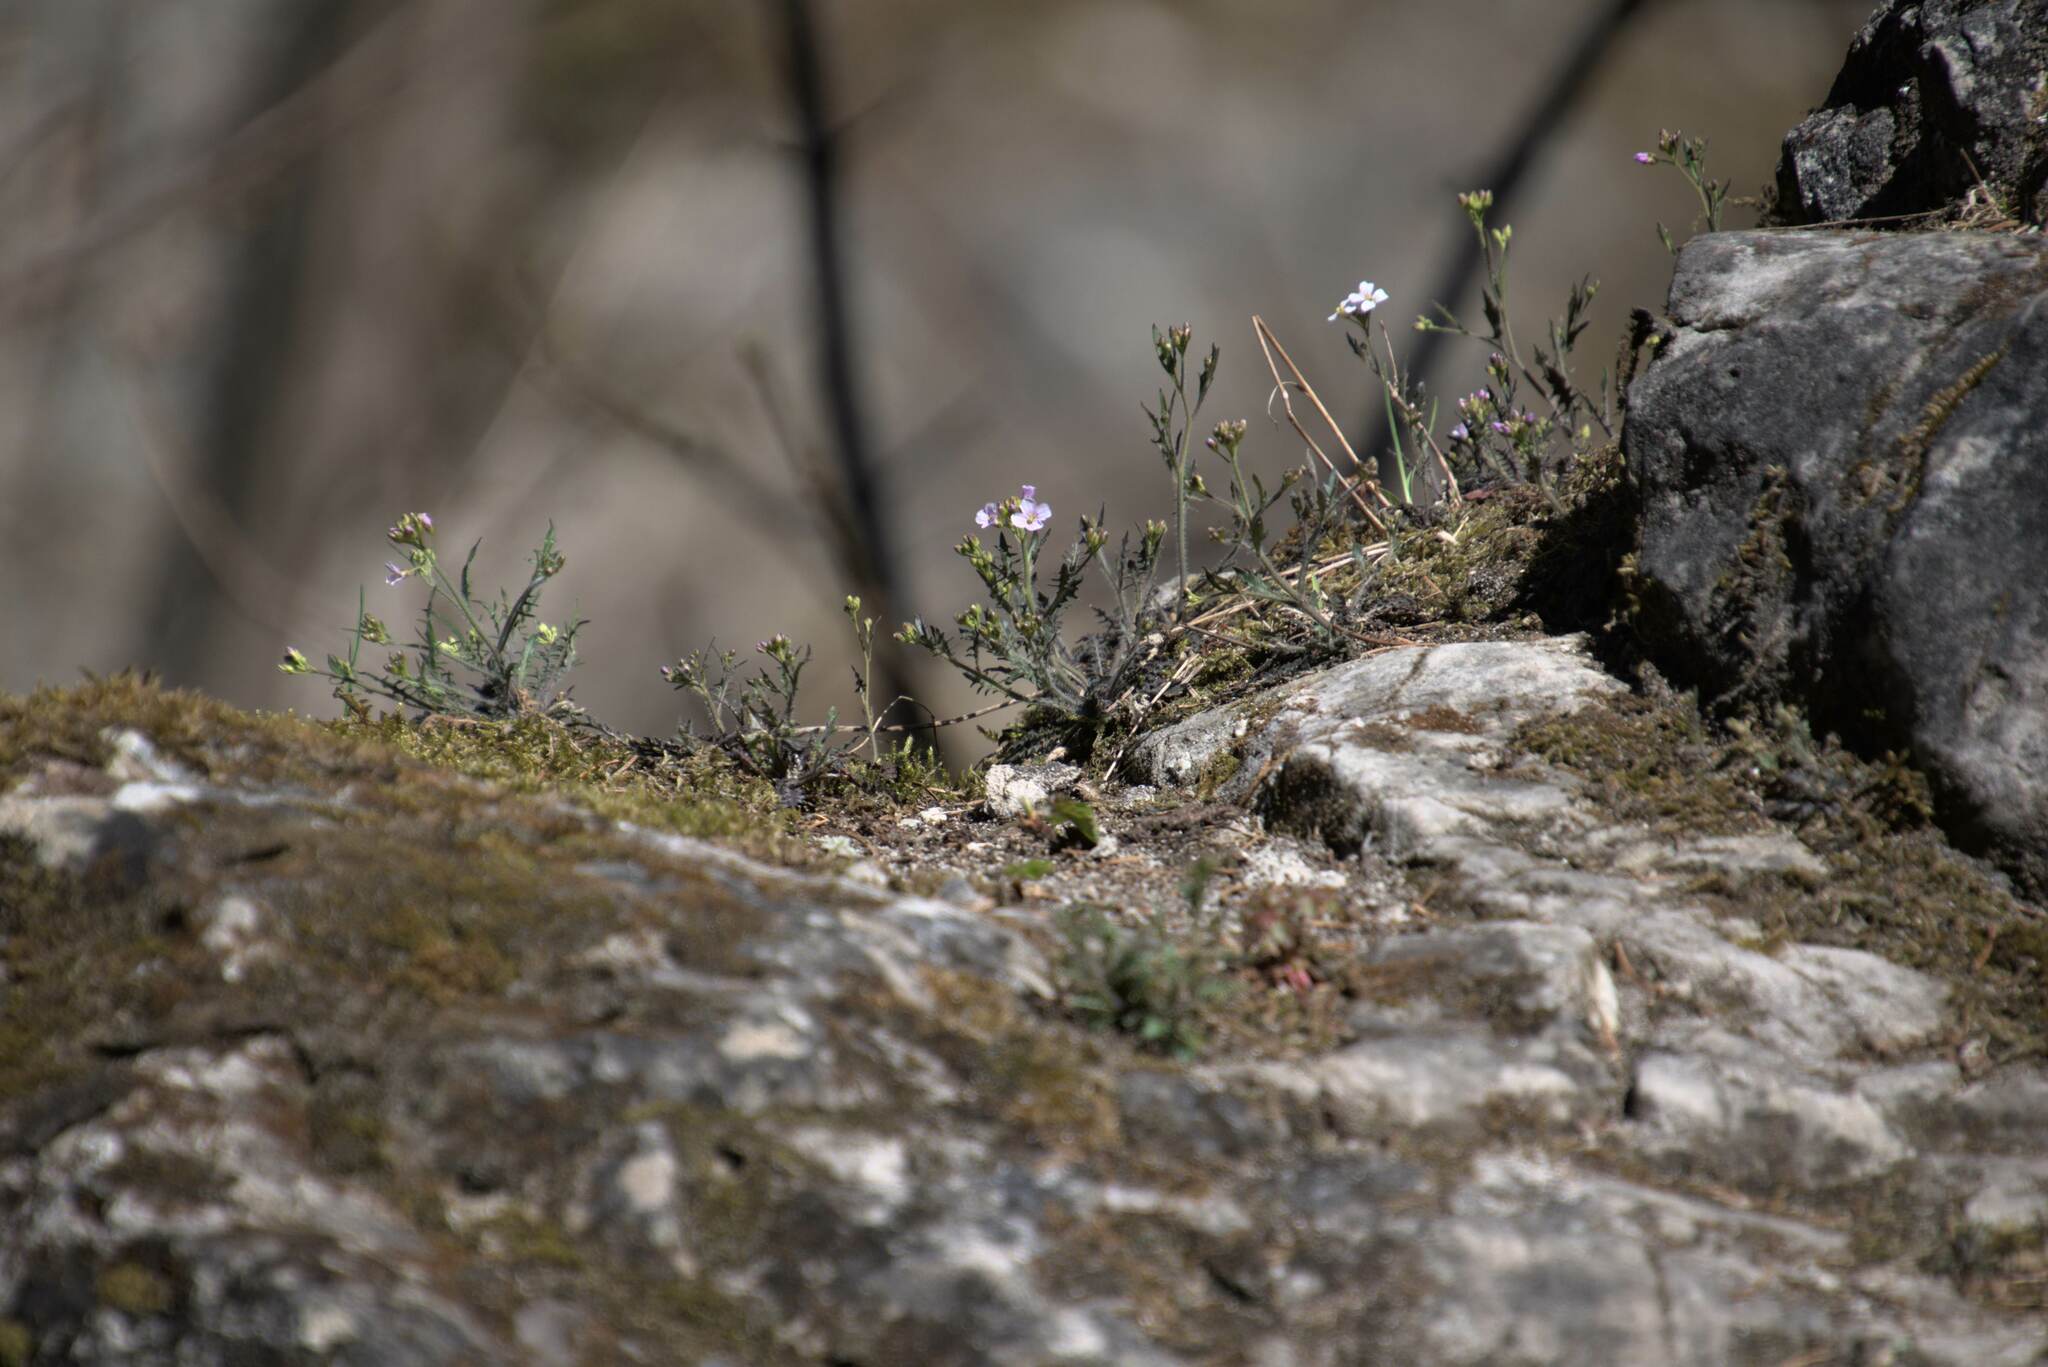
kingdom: Plantae
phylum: Tracheophyta
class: Magnoliopsida
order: Brassicales
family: Brassicaceae
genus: Arabidopsis
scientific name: Arabidopsis arenosa
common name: Sand rock-cress
